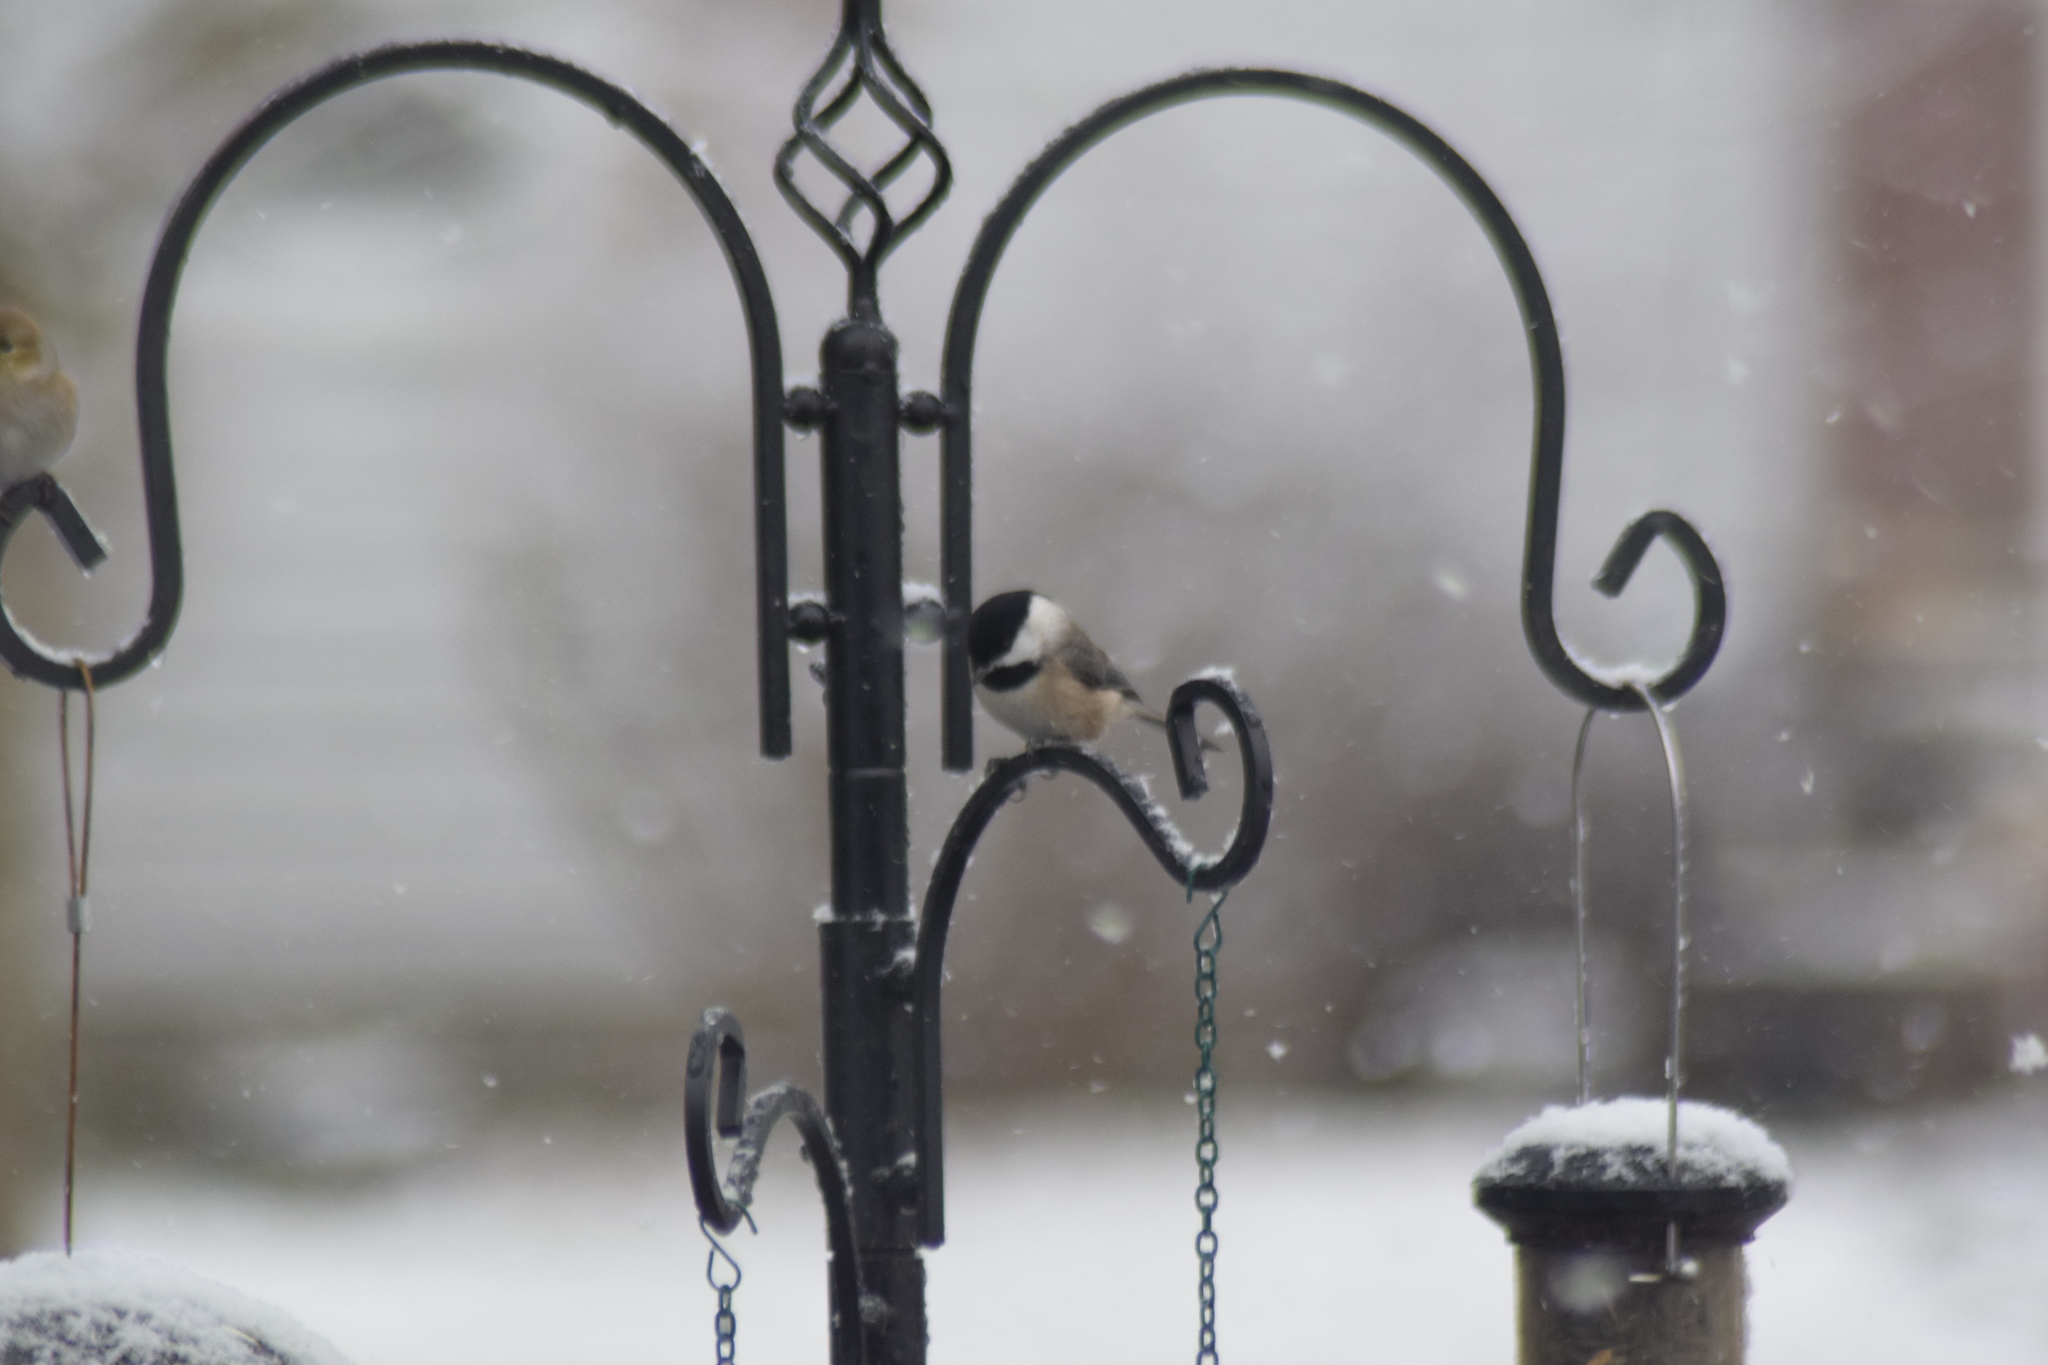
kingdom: Animalia
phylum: Chordata
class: Aves
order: Passeriformes
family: Paridae
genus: Poecile
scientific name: Poecile carolinensis
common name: Carolina chickadee
